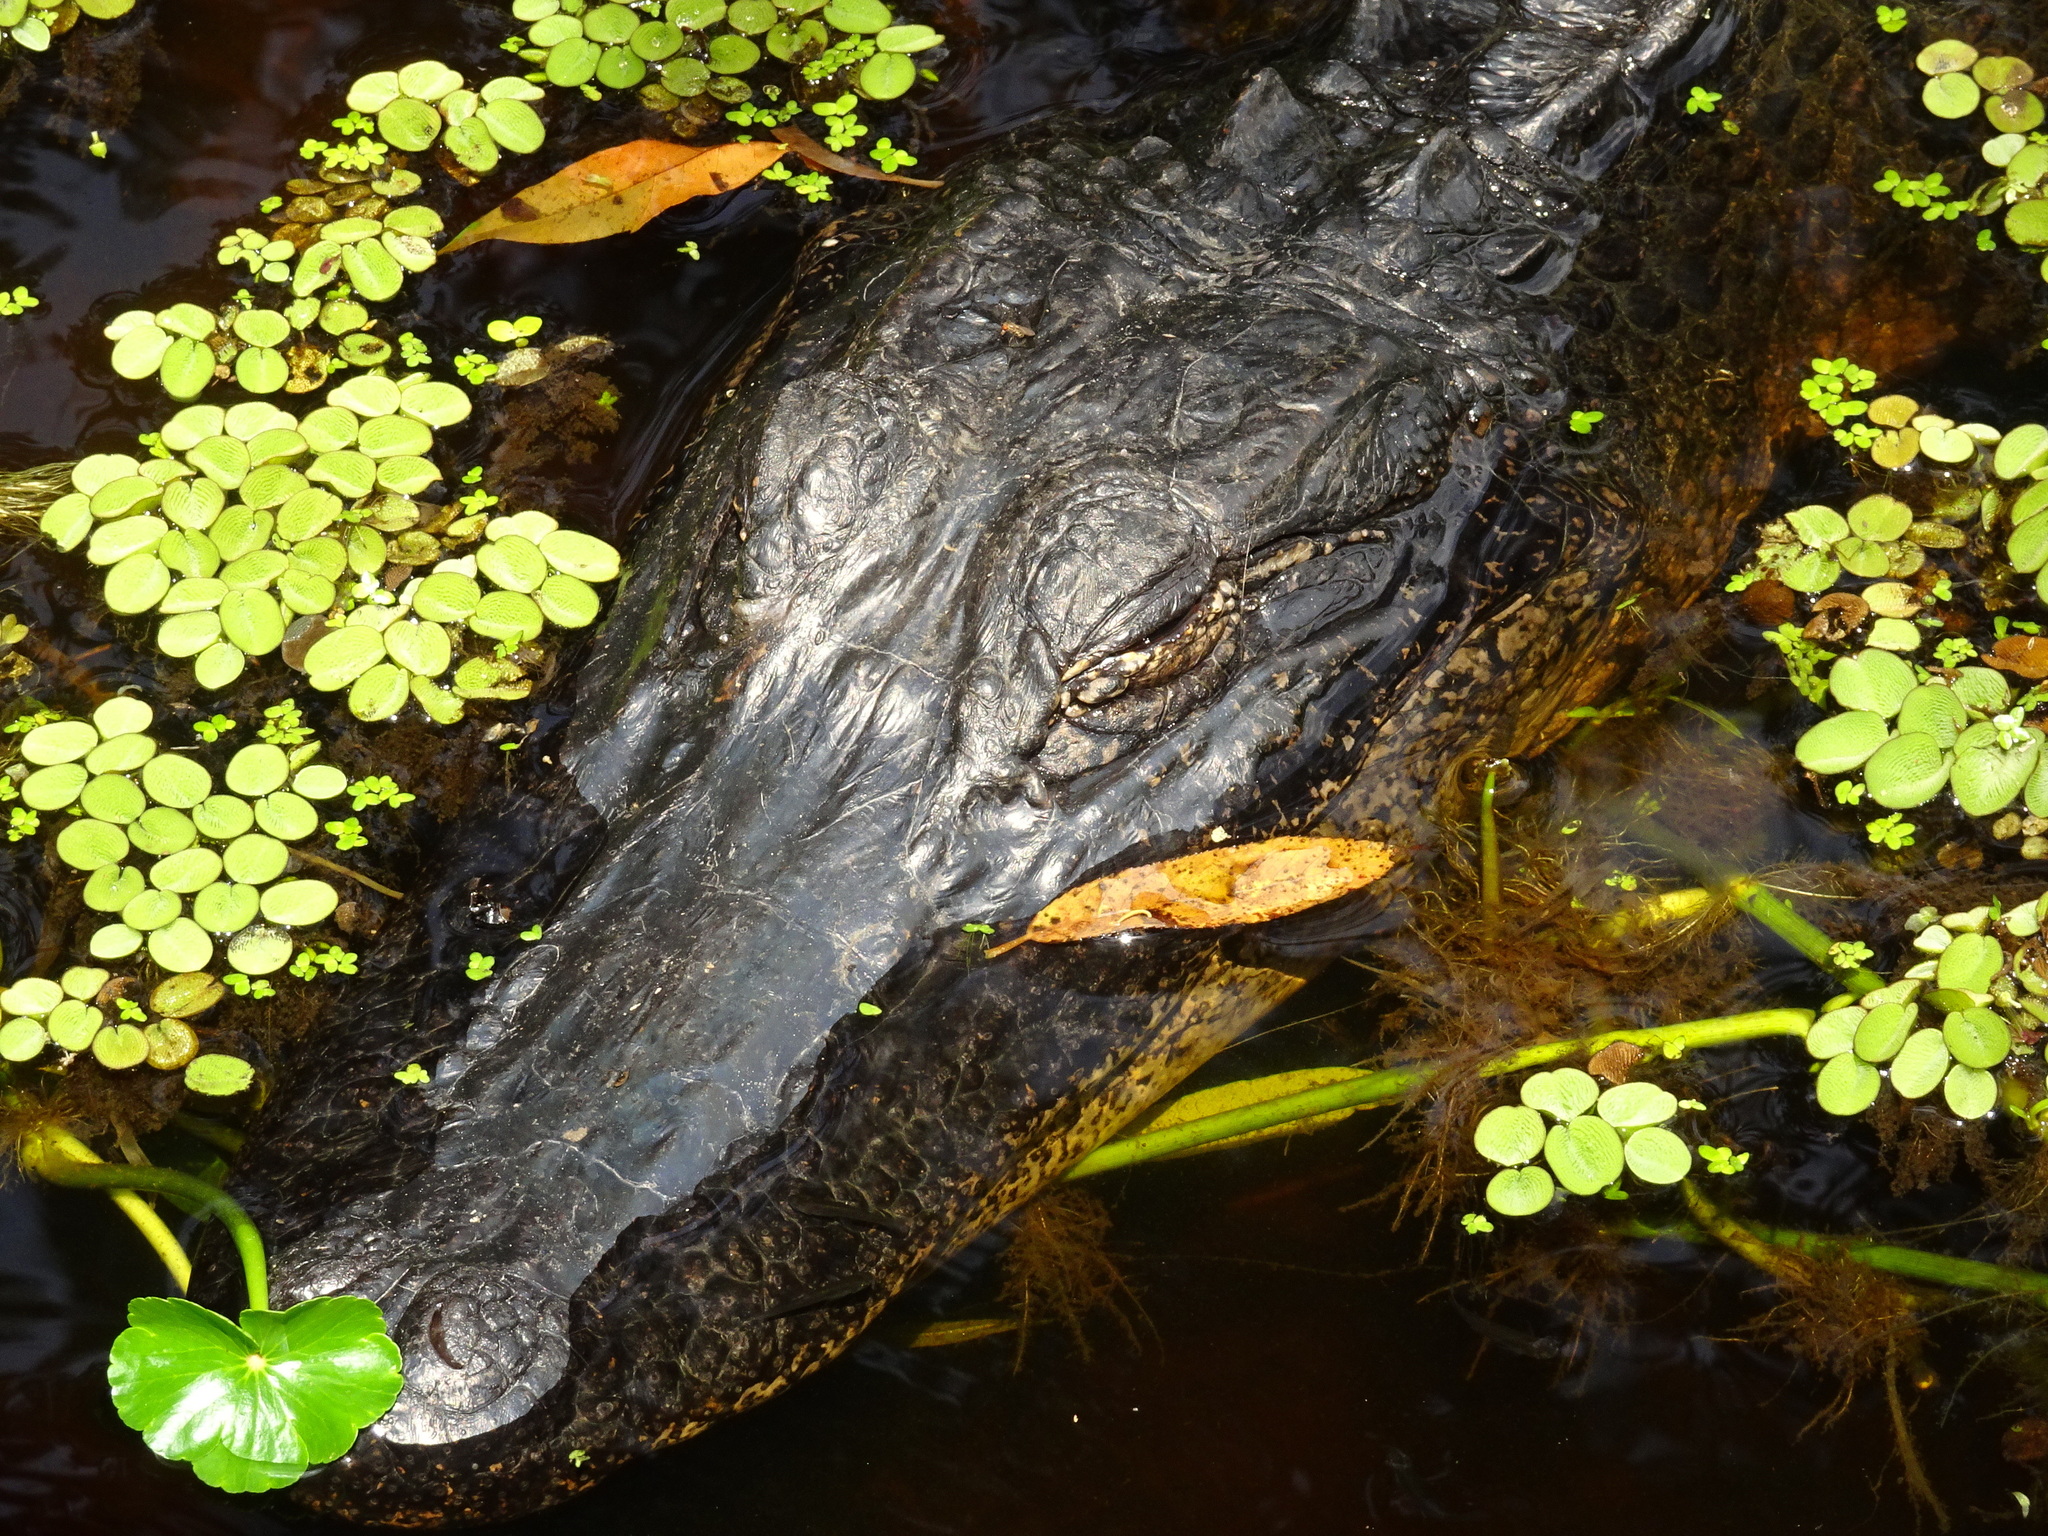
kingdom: Animalia
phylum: Chordata
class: Crocodylia
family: Alligatoridae
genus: Alligator
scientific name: Alligator mississippiensis
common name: American alligator
